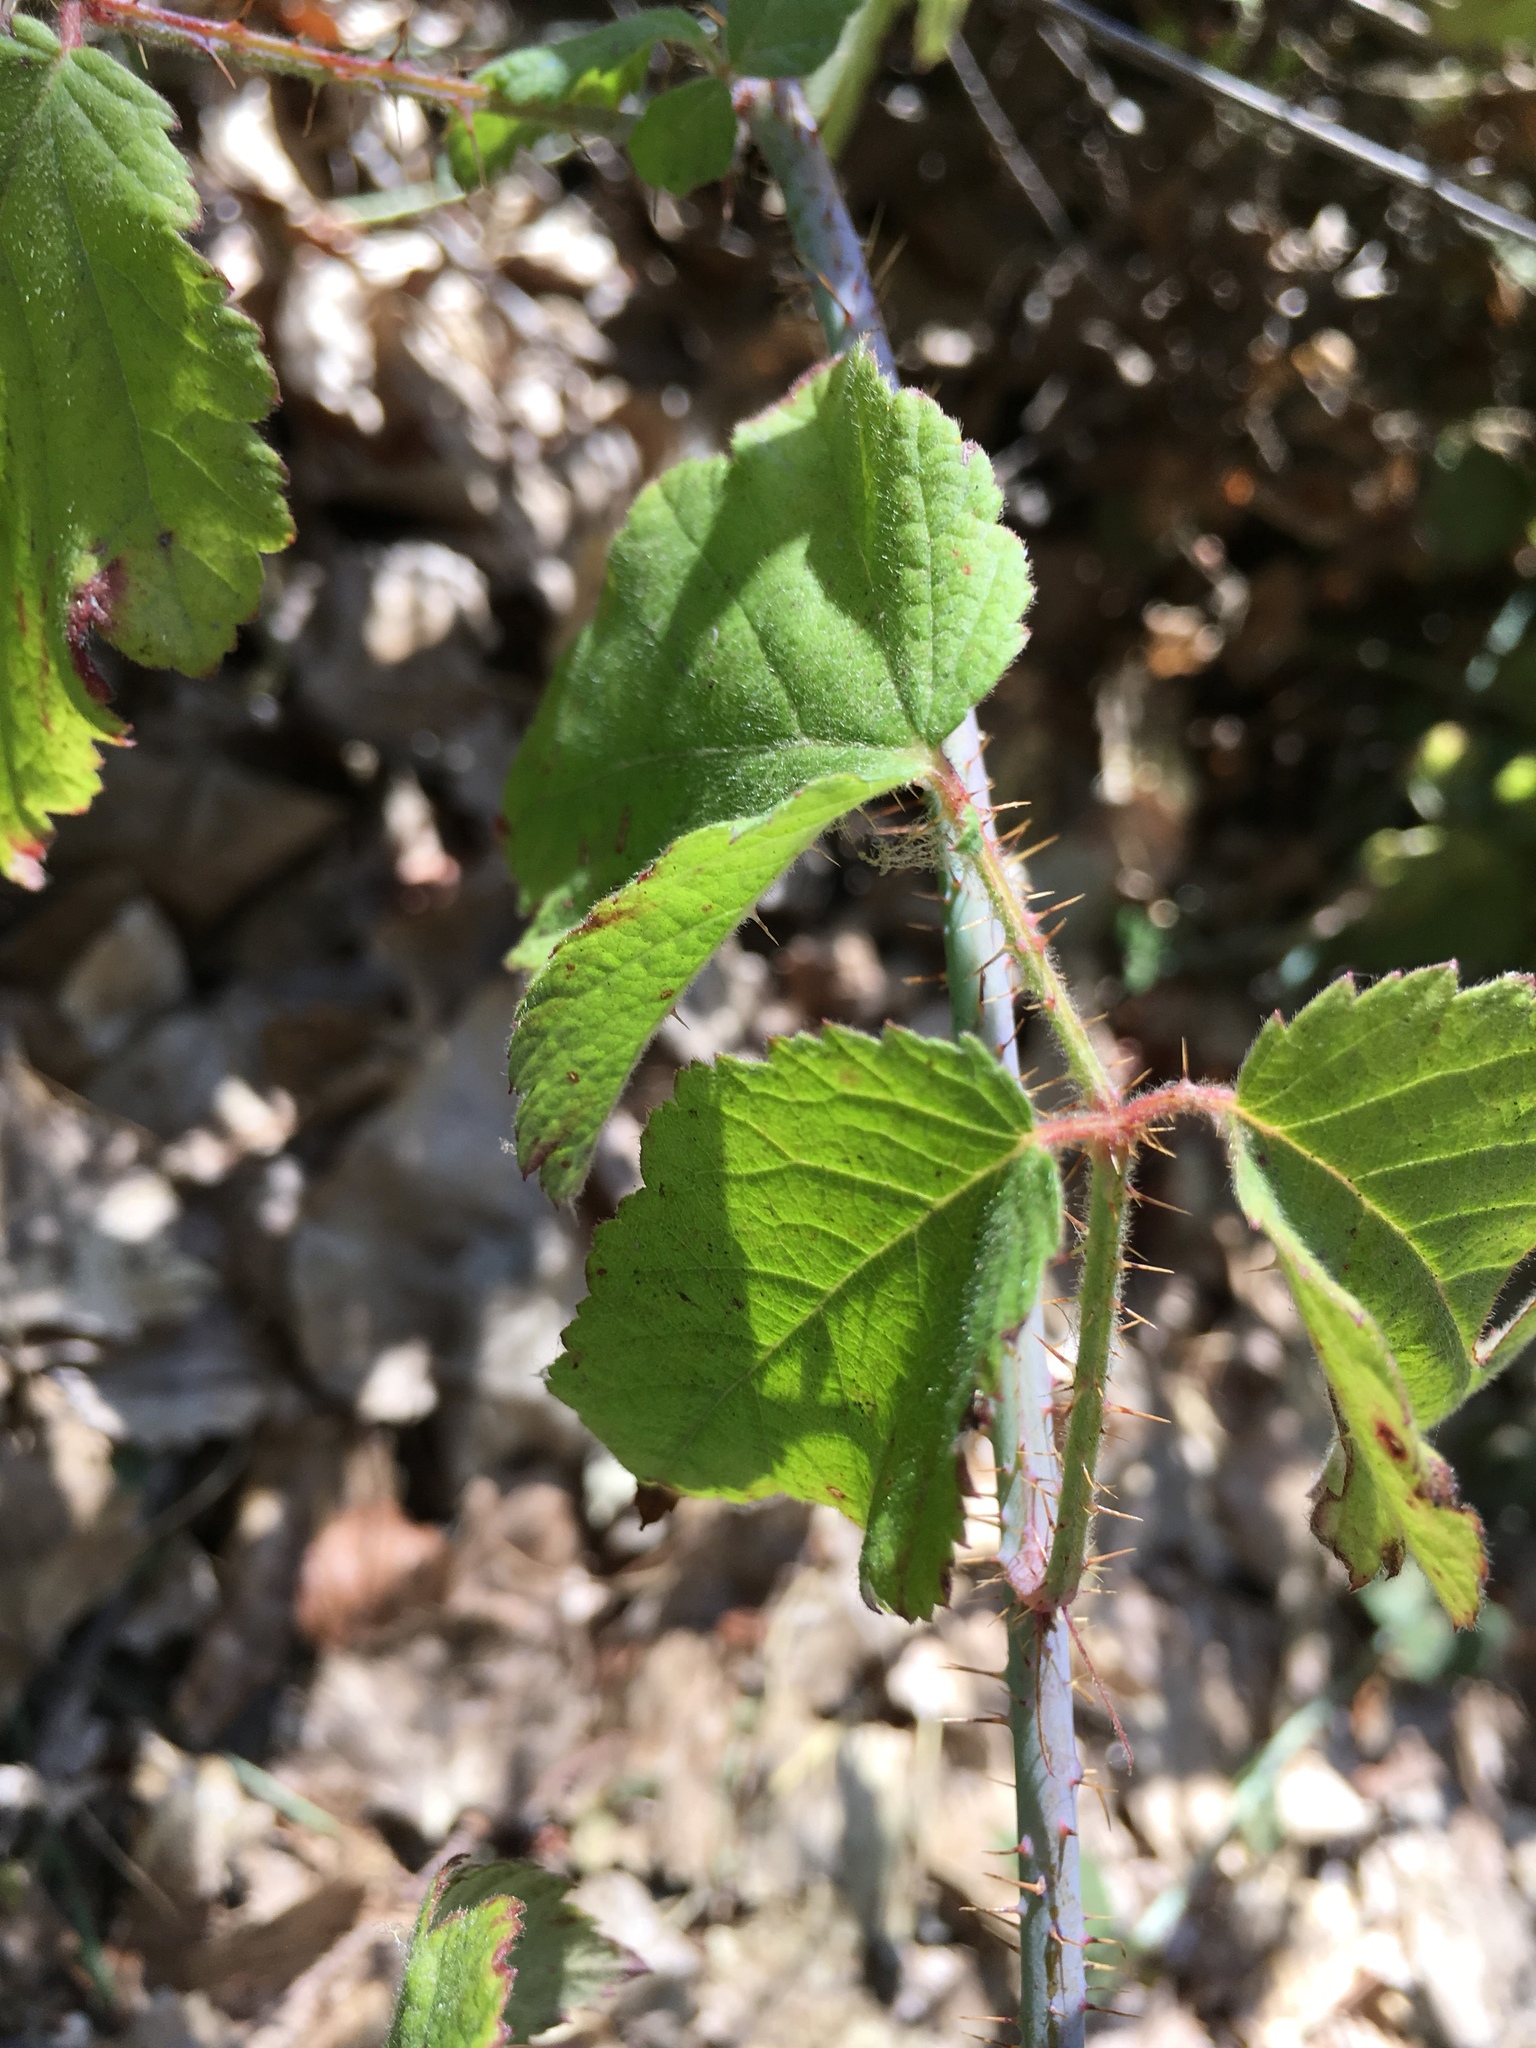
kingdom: Plantae
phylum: Tracheophyta
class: Magnoliopsida
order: Rosales
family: Rosaceae
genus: Rubus
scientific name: Rubus ursinus
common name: Pacific blackberry
